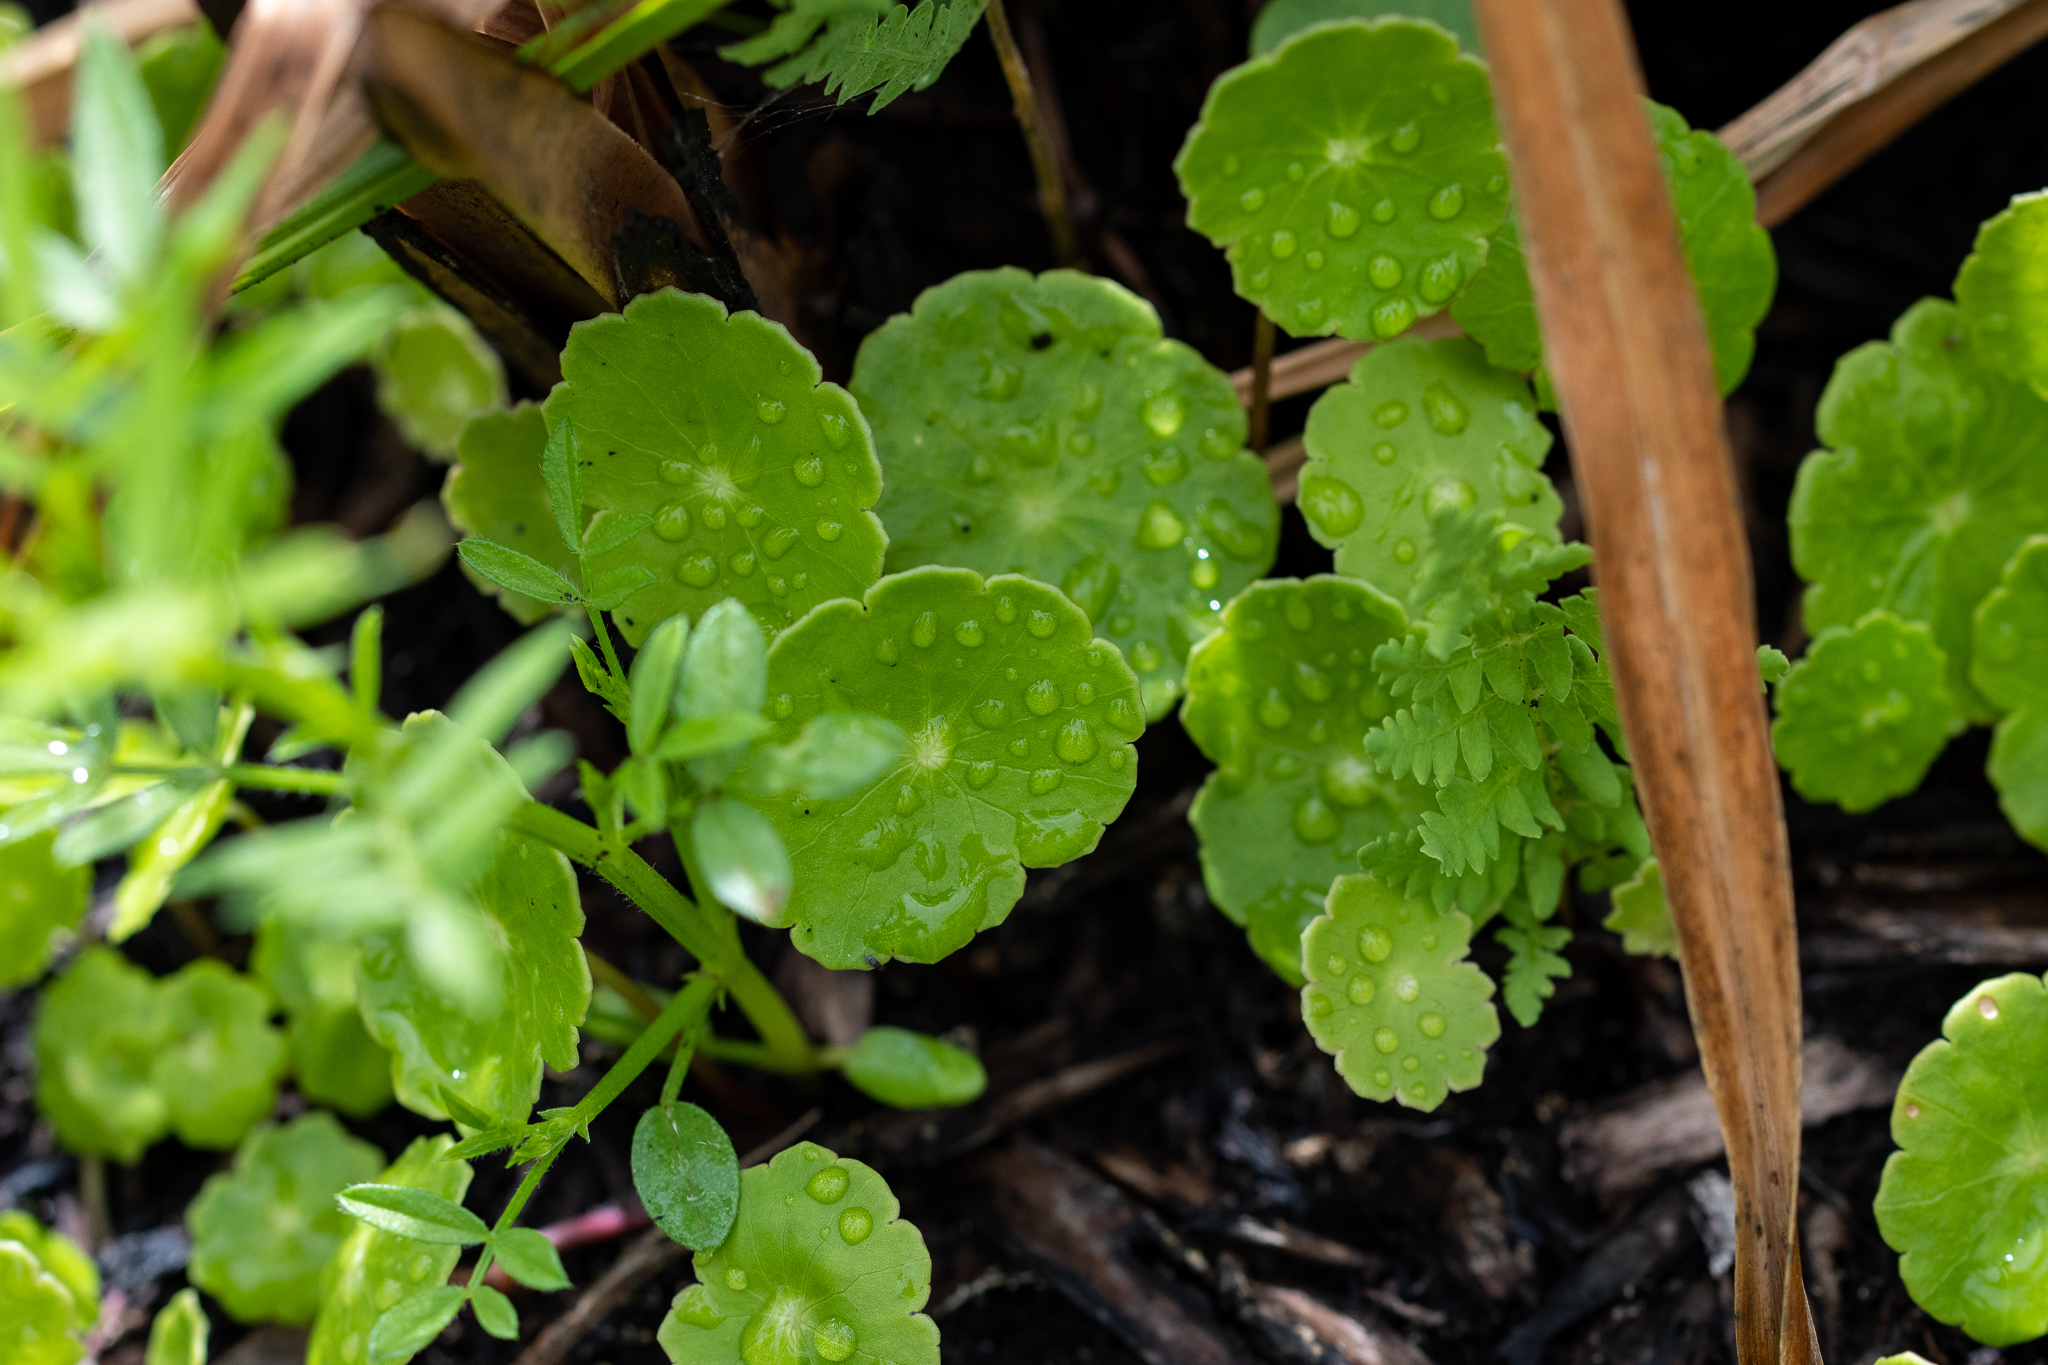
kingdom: Plantae
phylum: Tracheophyta
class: Magnoliopsida
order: Apiales
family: Araliaceae
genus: Hydrocotyle
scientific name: Hydrocotyle verticillata
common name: Whorled marshpennywort
